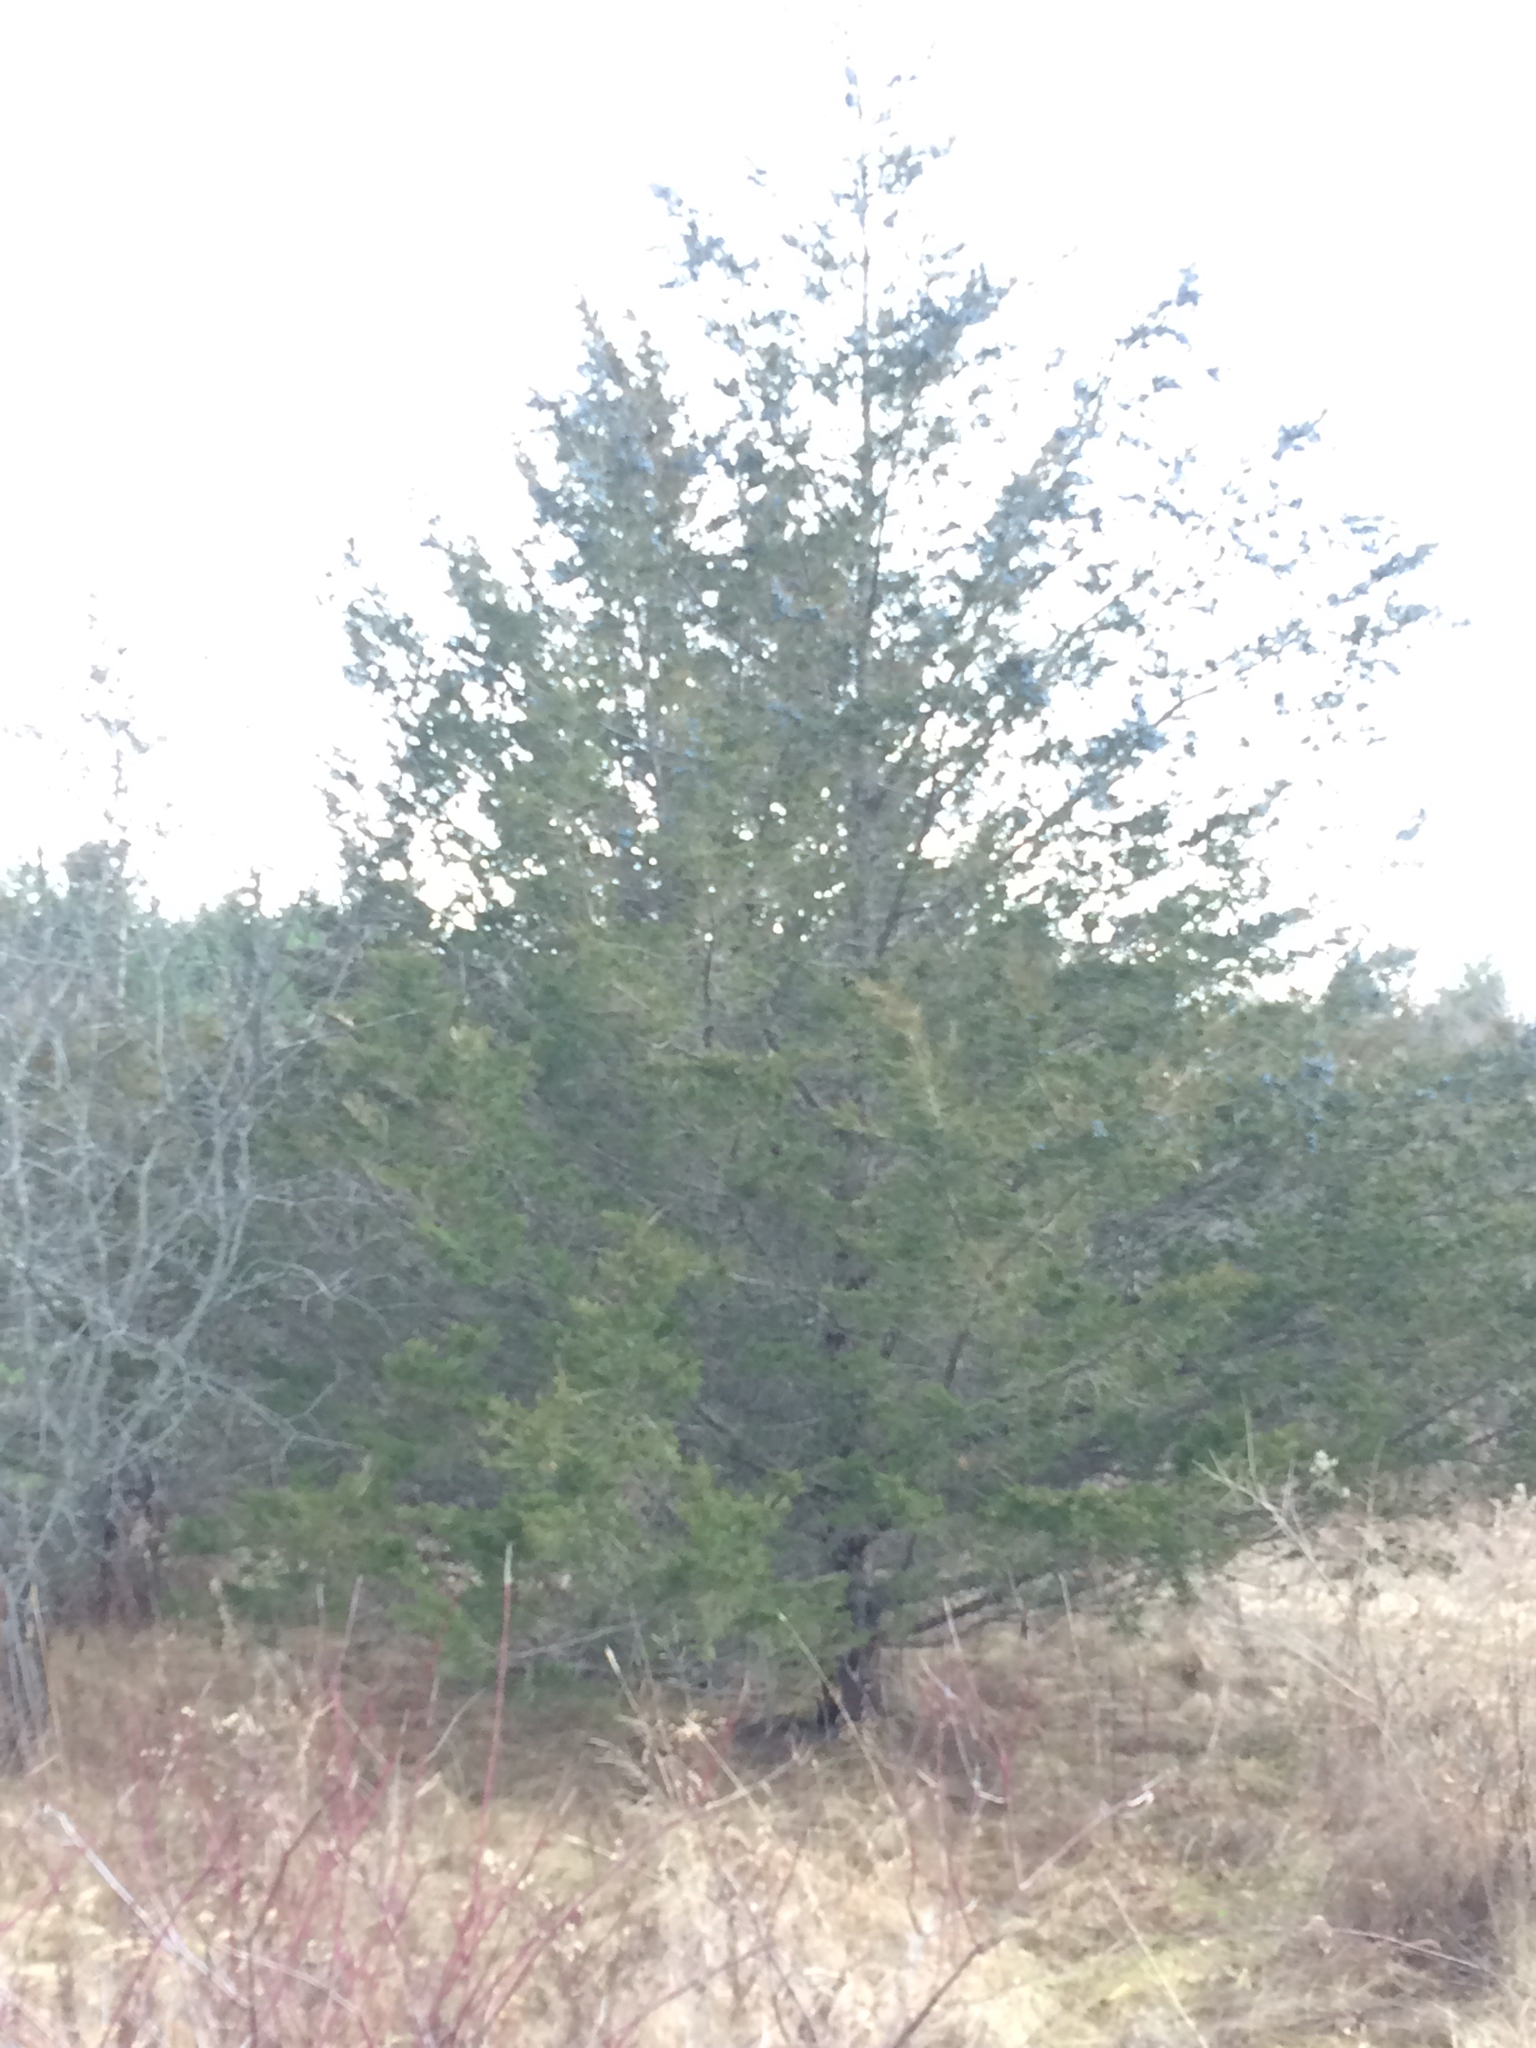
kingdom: Plantae
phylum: Tracheophyta
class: Pinopsida
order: Pinales
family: Cupressaceae
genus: Juniperus
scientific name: Juniperus virginiana
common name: Red juniper
